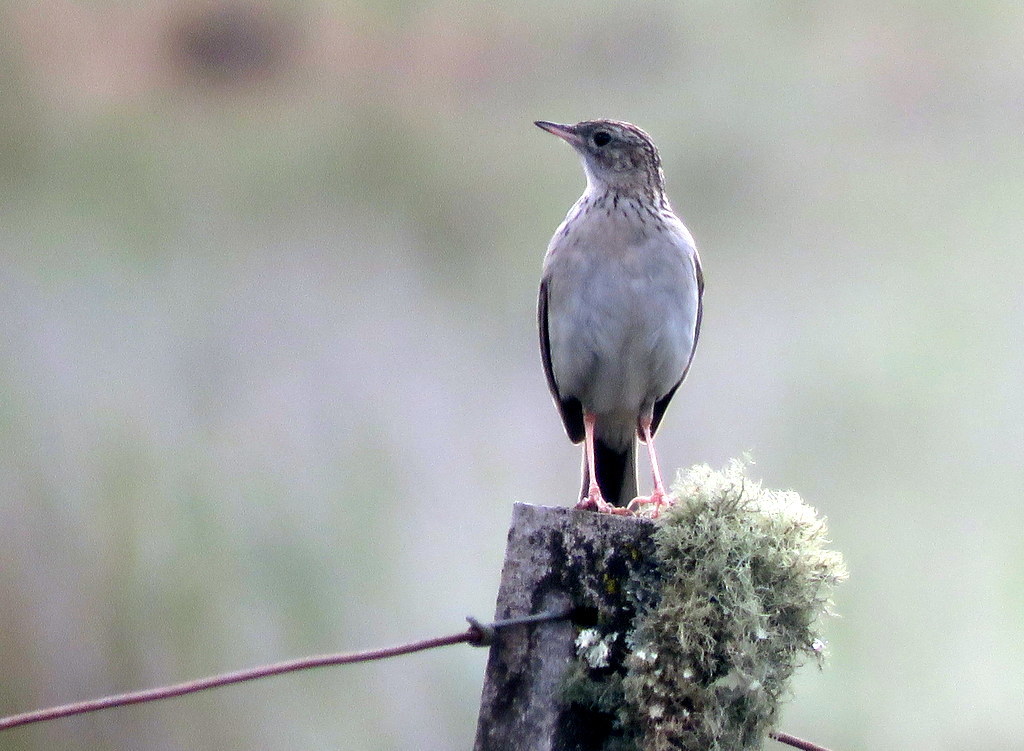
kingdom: Animalia
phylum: Chordata
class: Aves
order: Passeriformes
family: Motacillidae
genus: Anthus
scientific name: Anthus hellmayri
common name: Hellmayr's pipit
